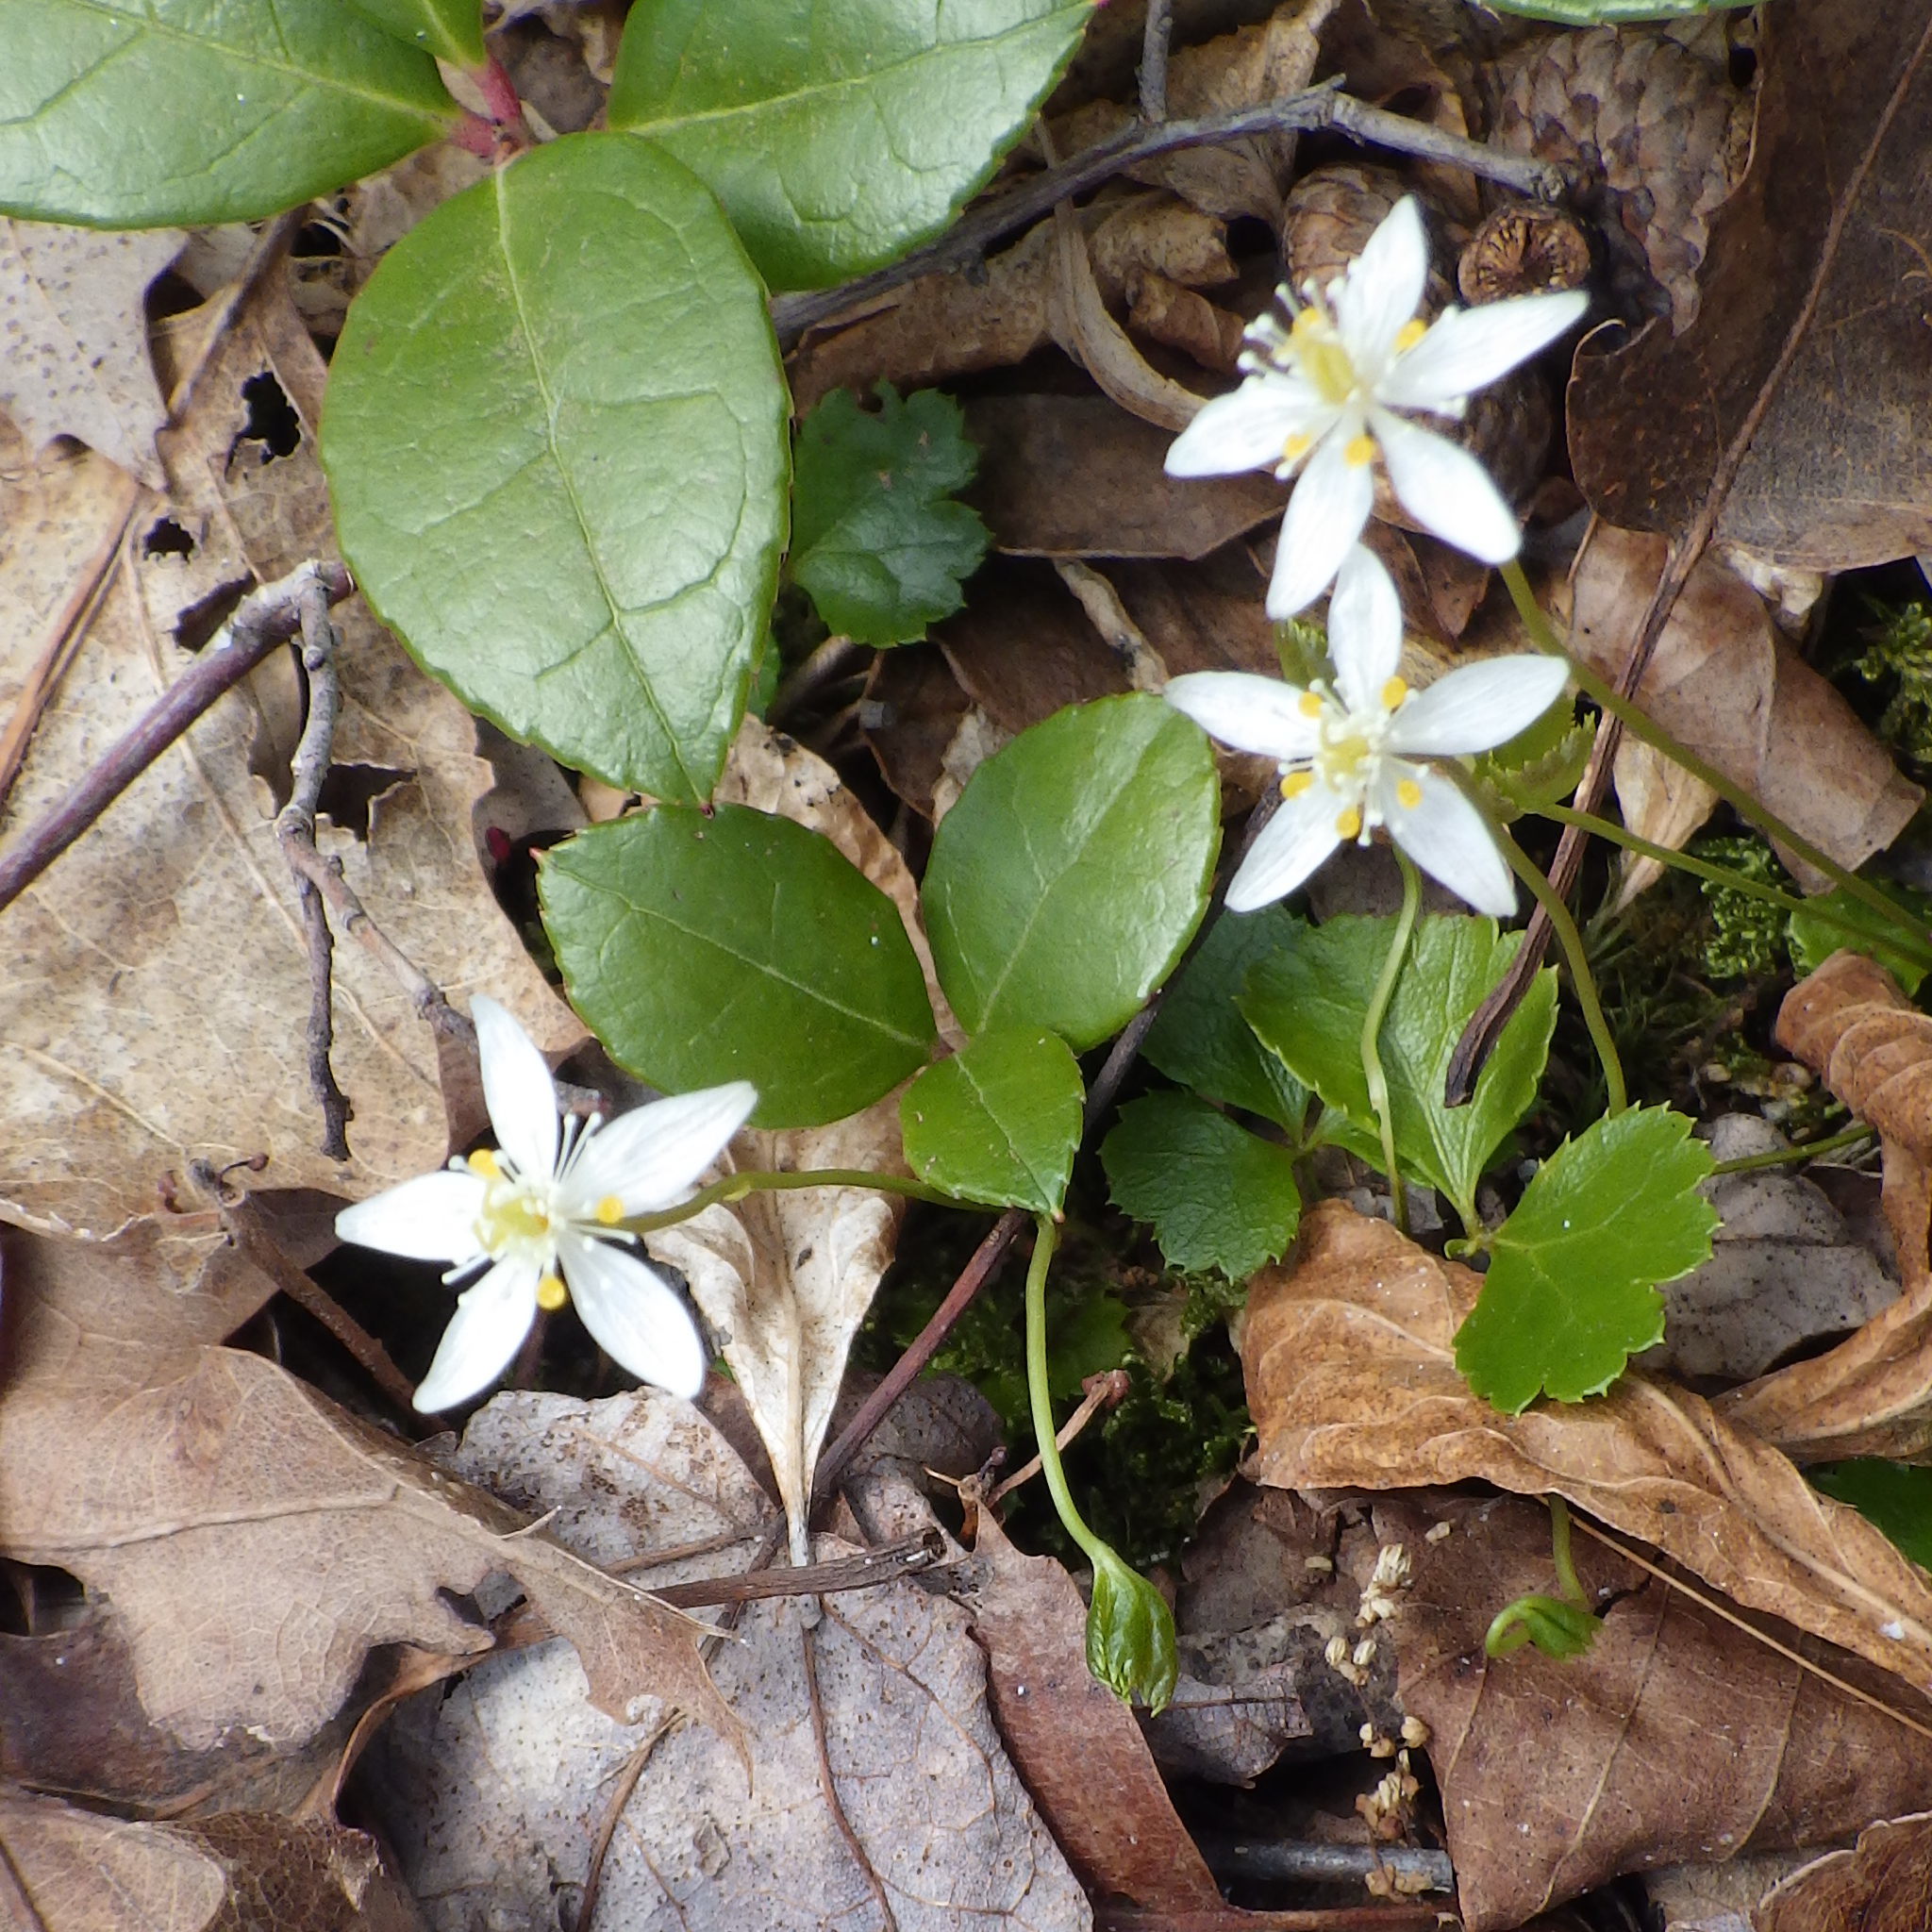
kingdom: Plantae
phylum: Tracheophyta
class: Magnoliopsida
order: Ranunculales
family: Ranunculaceae
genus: Coptis
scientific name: Coptis trifolia
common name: Canker-root
